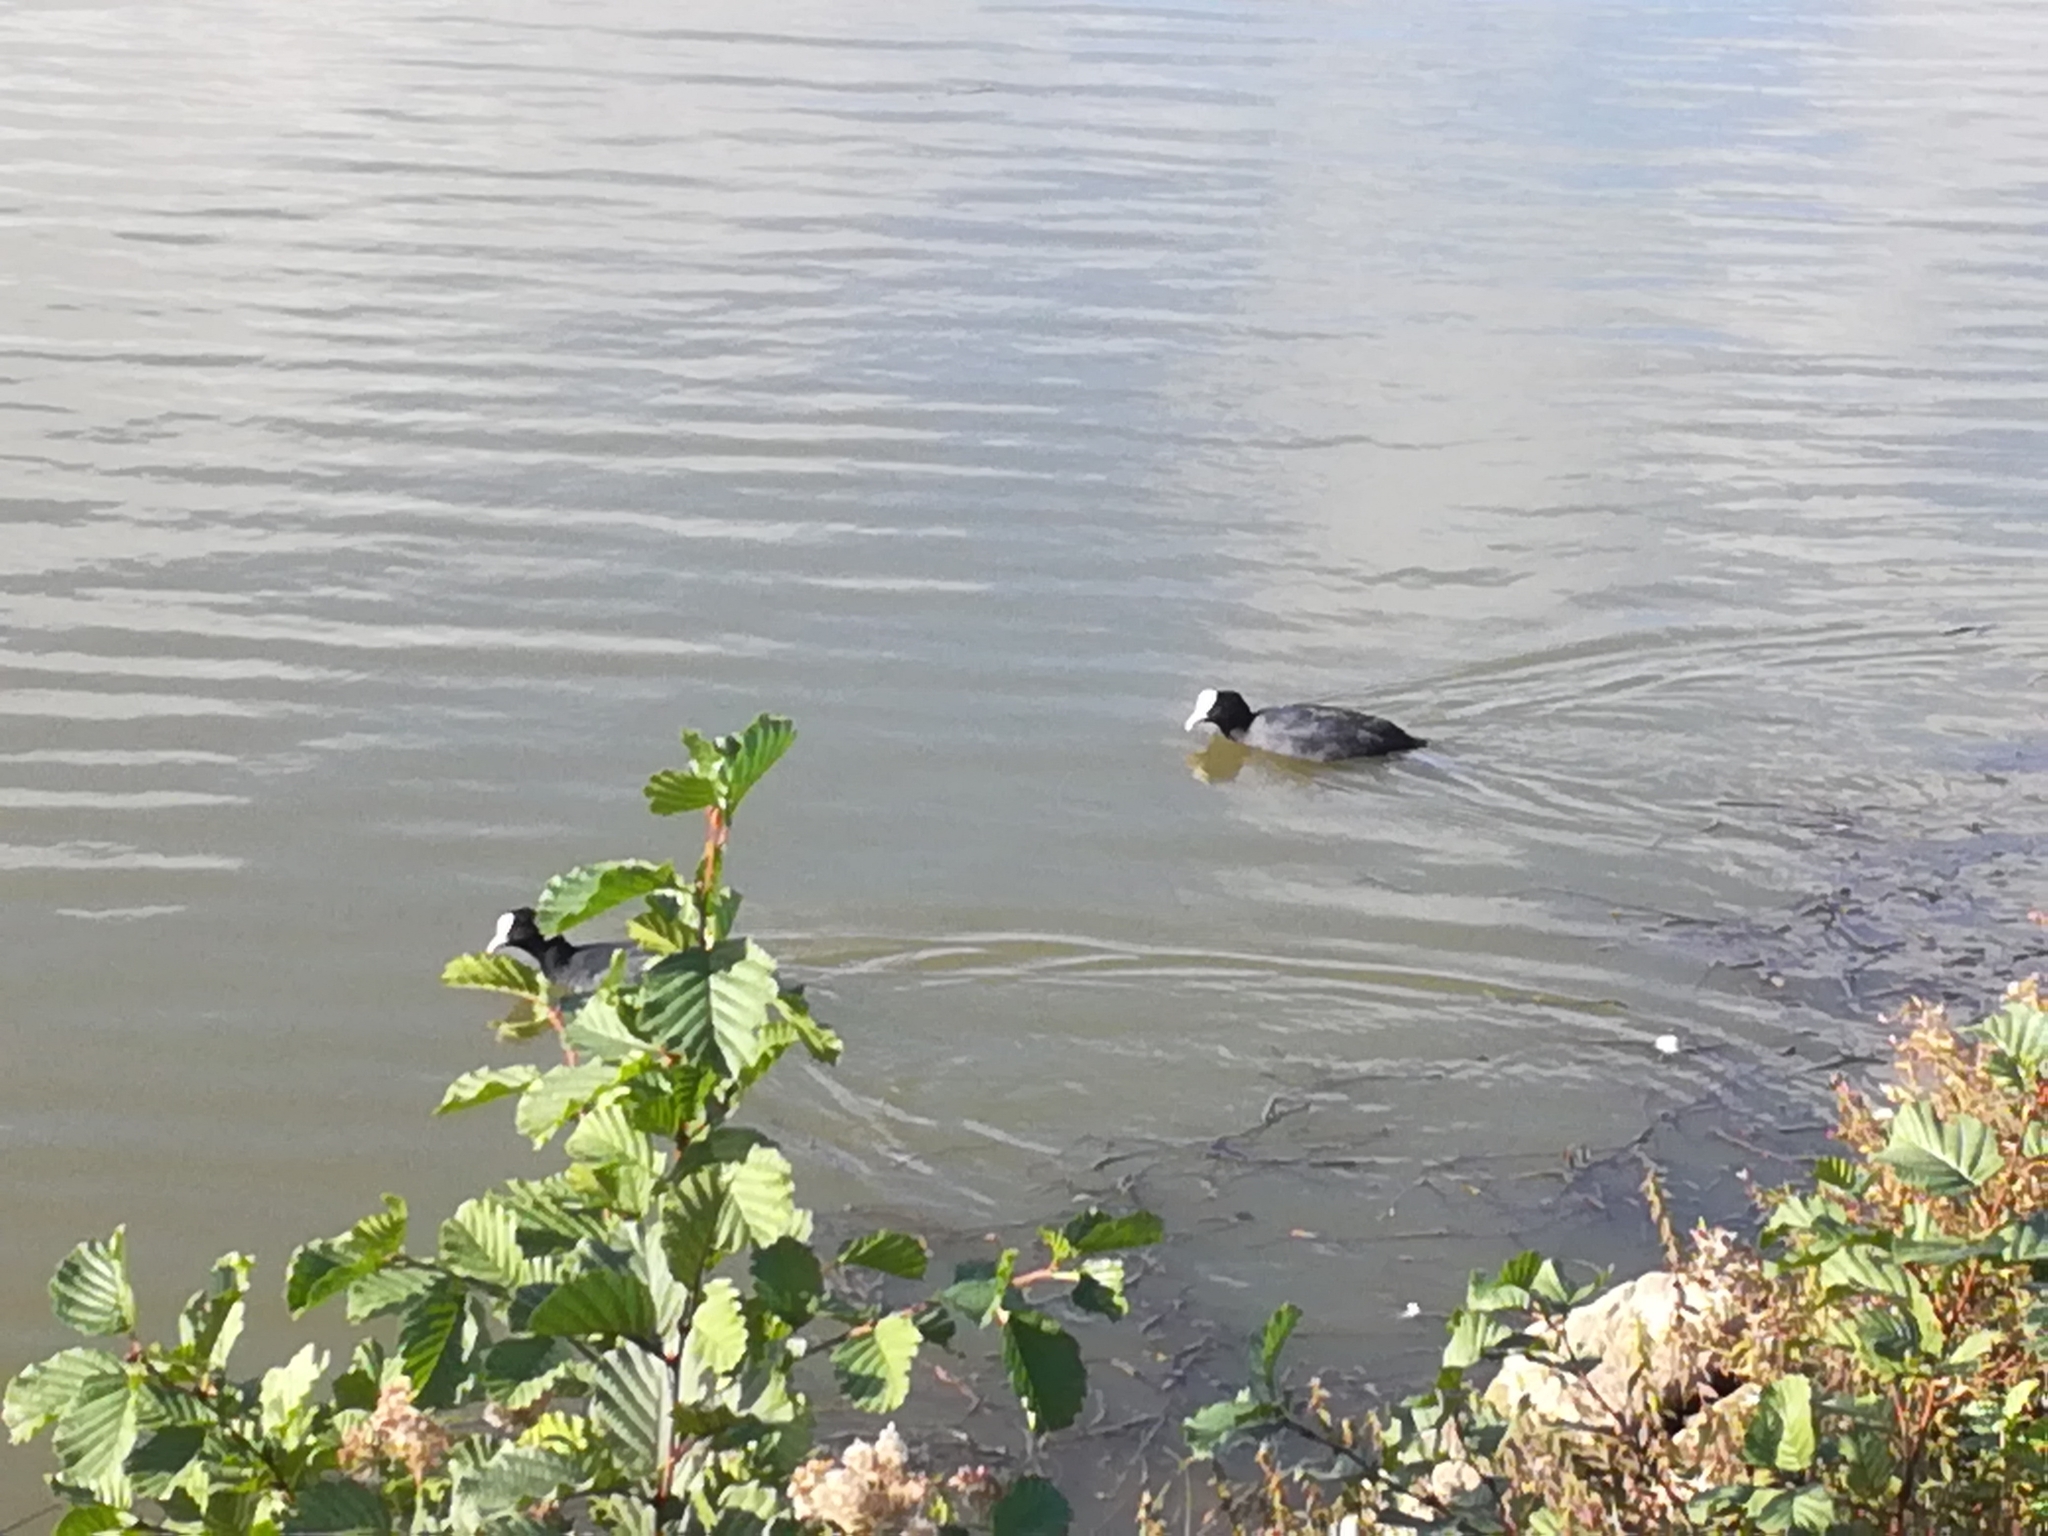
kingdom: Animalia
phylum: Chordata
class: Aves
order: Gruiformes
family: Rallidae
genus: Fulica
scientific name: Fulica atra
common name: Eurasian coot
